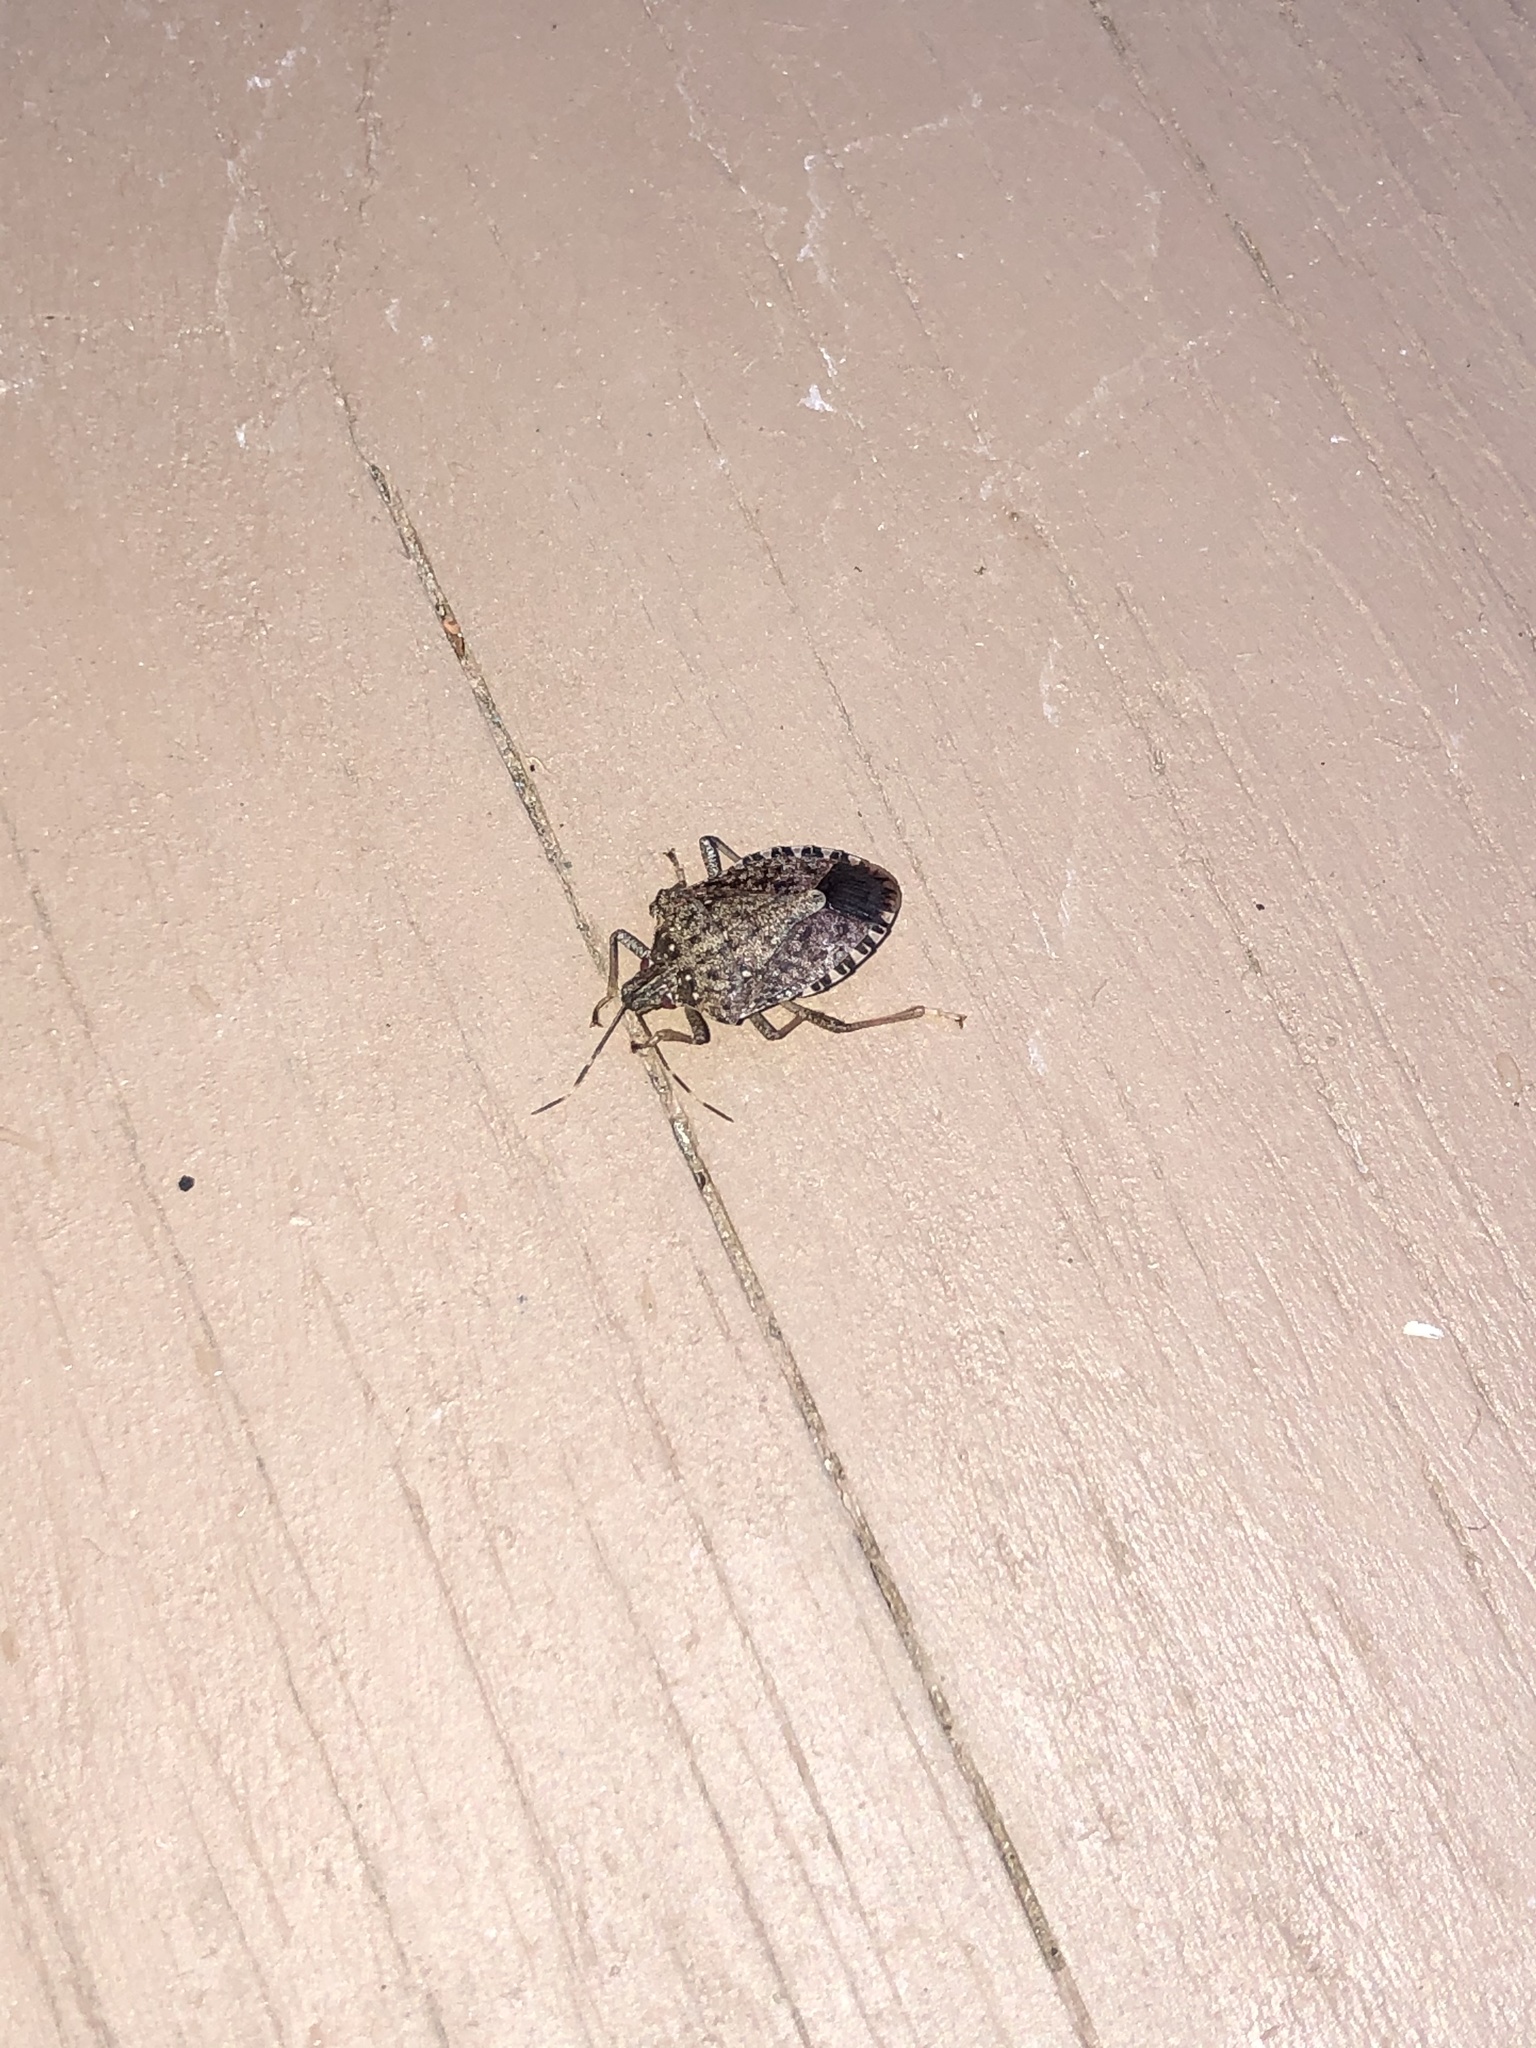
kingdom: Animalia
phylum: Arthropoda
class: Insecta
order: Hemiptera
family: Pentatomidae
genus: Halyomorpha
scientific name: Halyomorpha halys
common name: Brown marmorated stink bug
